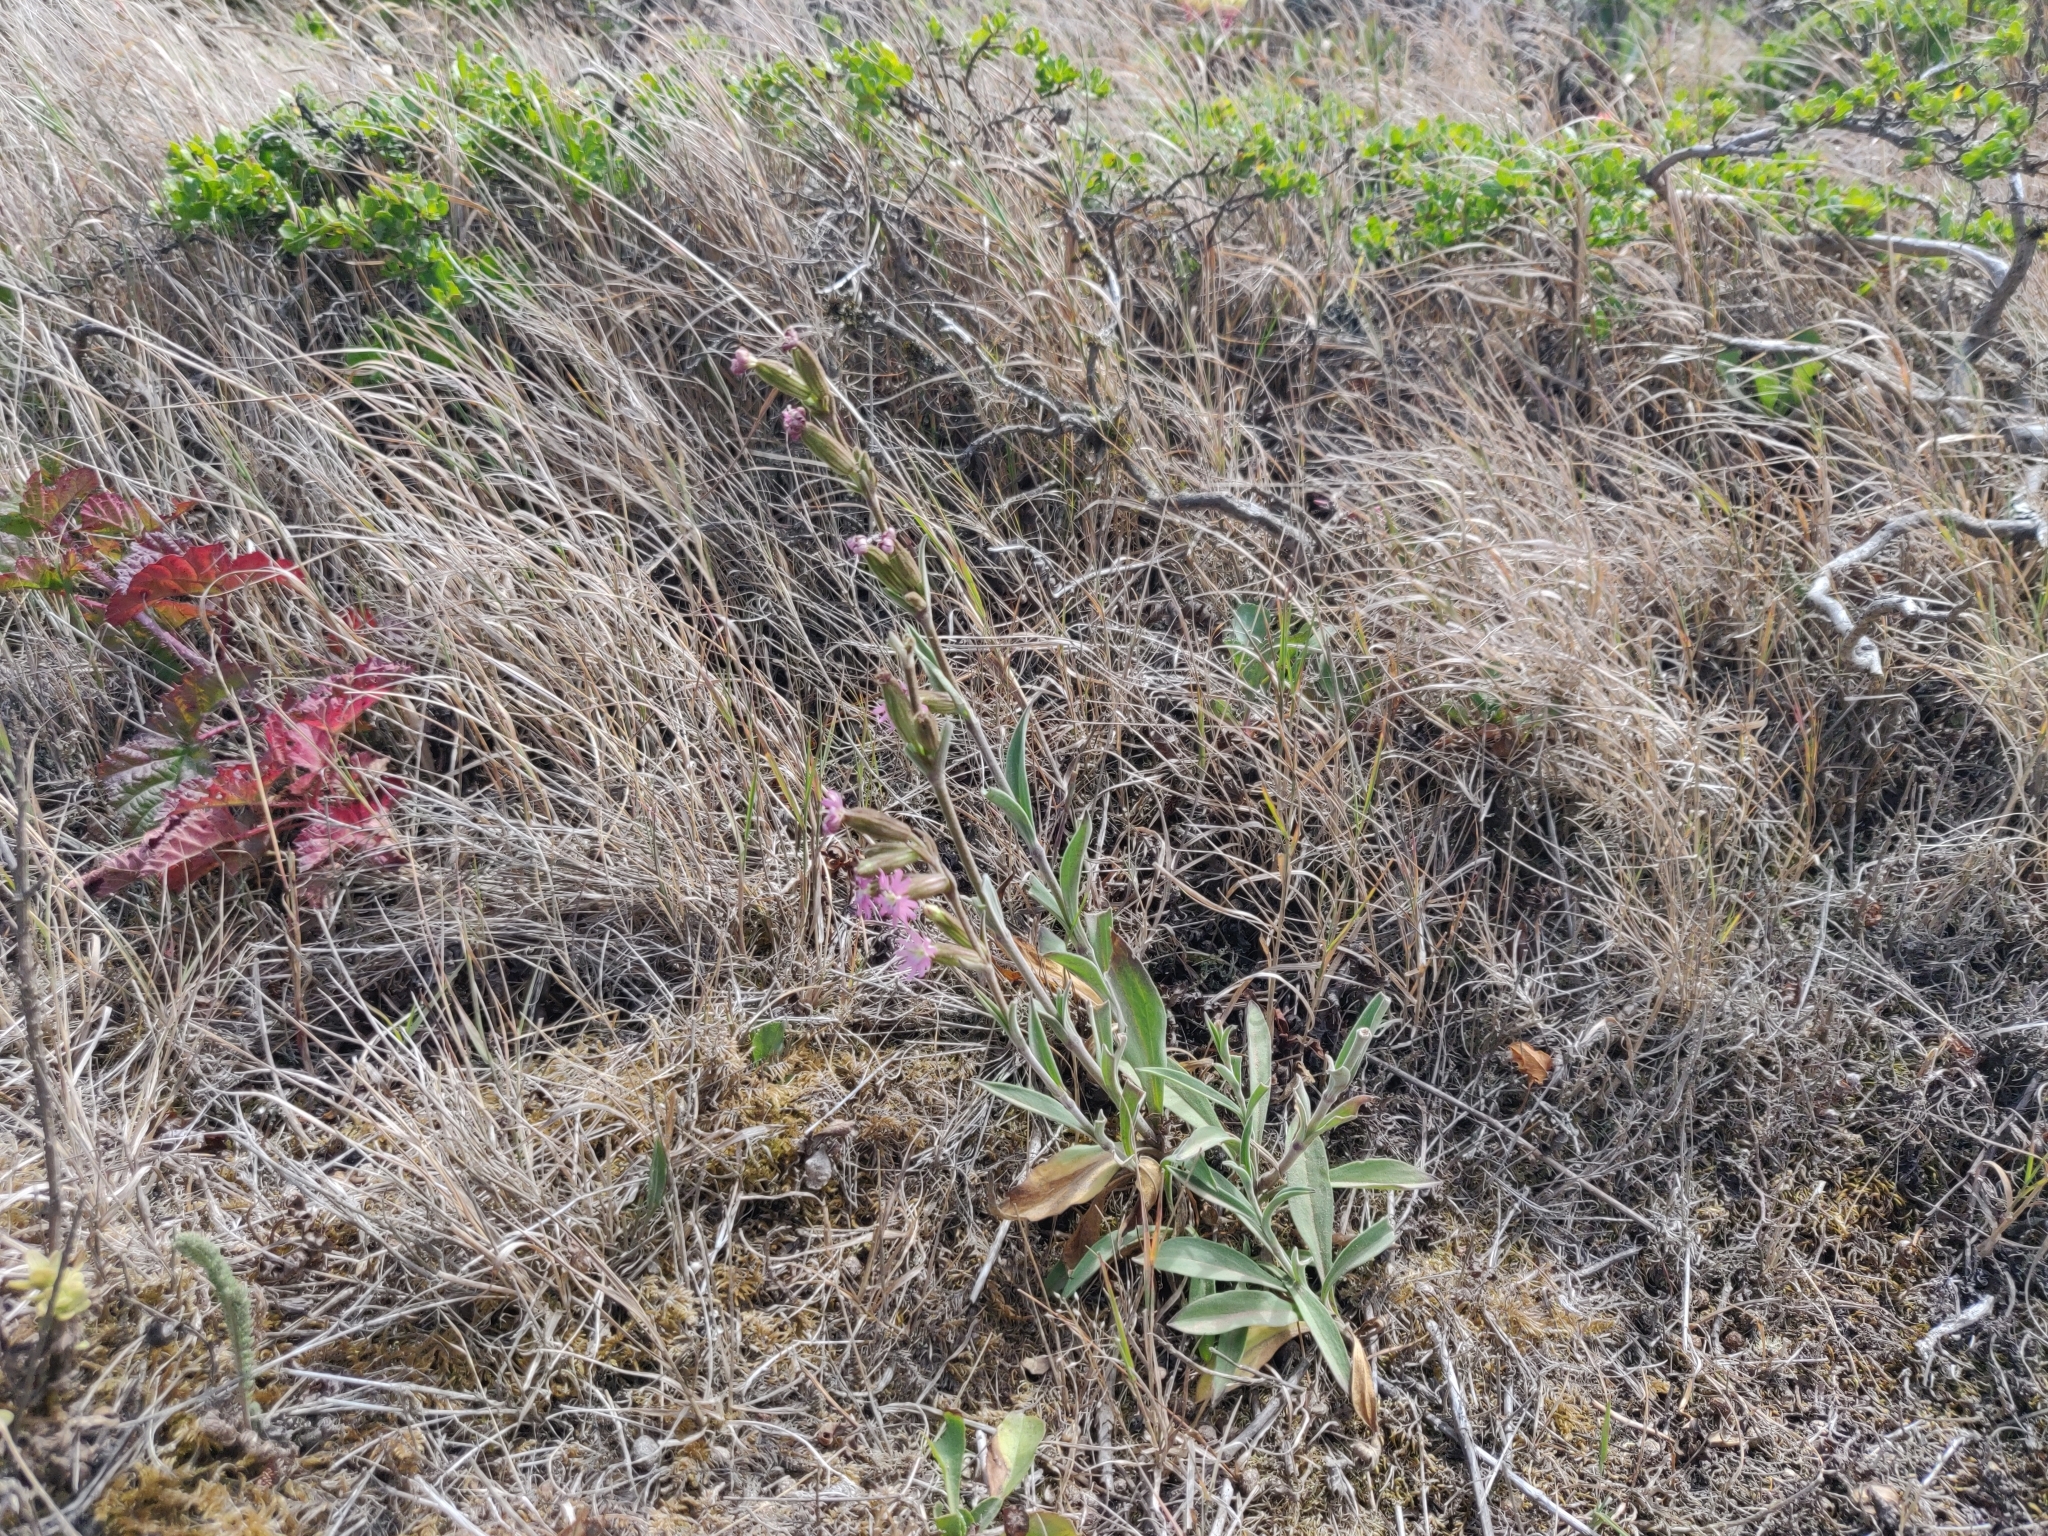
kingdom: Plantae
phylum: Tracheophyta
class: Magnoliopsida
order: Caryophyllales
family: Caryophyllaceae
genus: Silene
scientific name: Silene scouleri
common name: Scouler's campion
